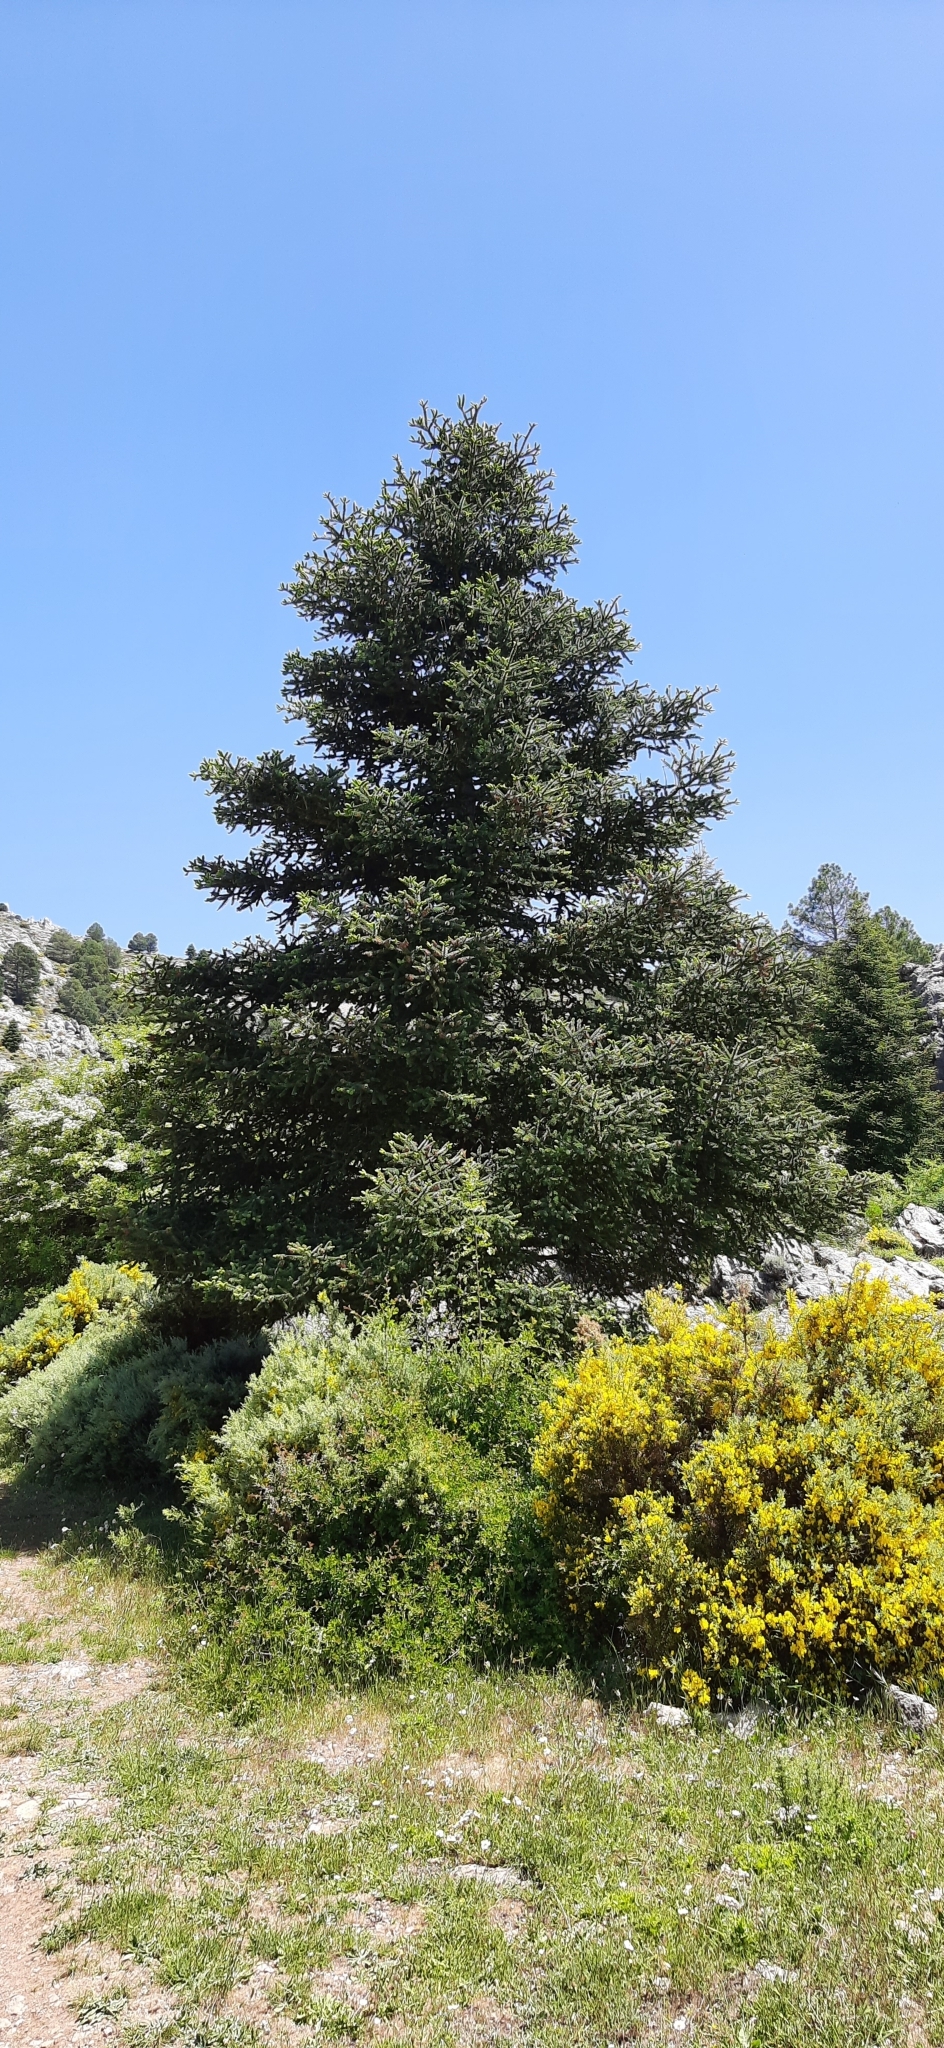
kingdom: Plantae
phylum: Tracheophyta
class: Pinopsida
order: Pinales
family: Pinaceae
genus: Abies
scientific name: Abies pinsapo
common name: Spanish fir
